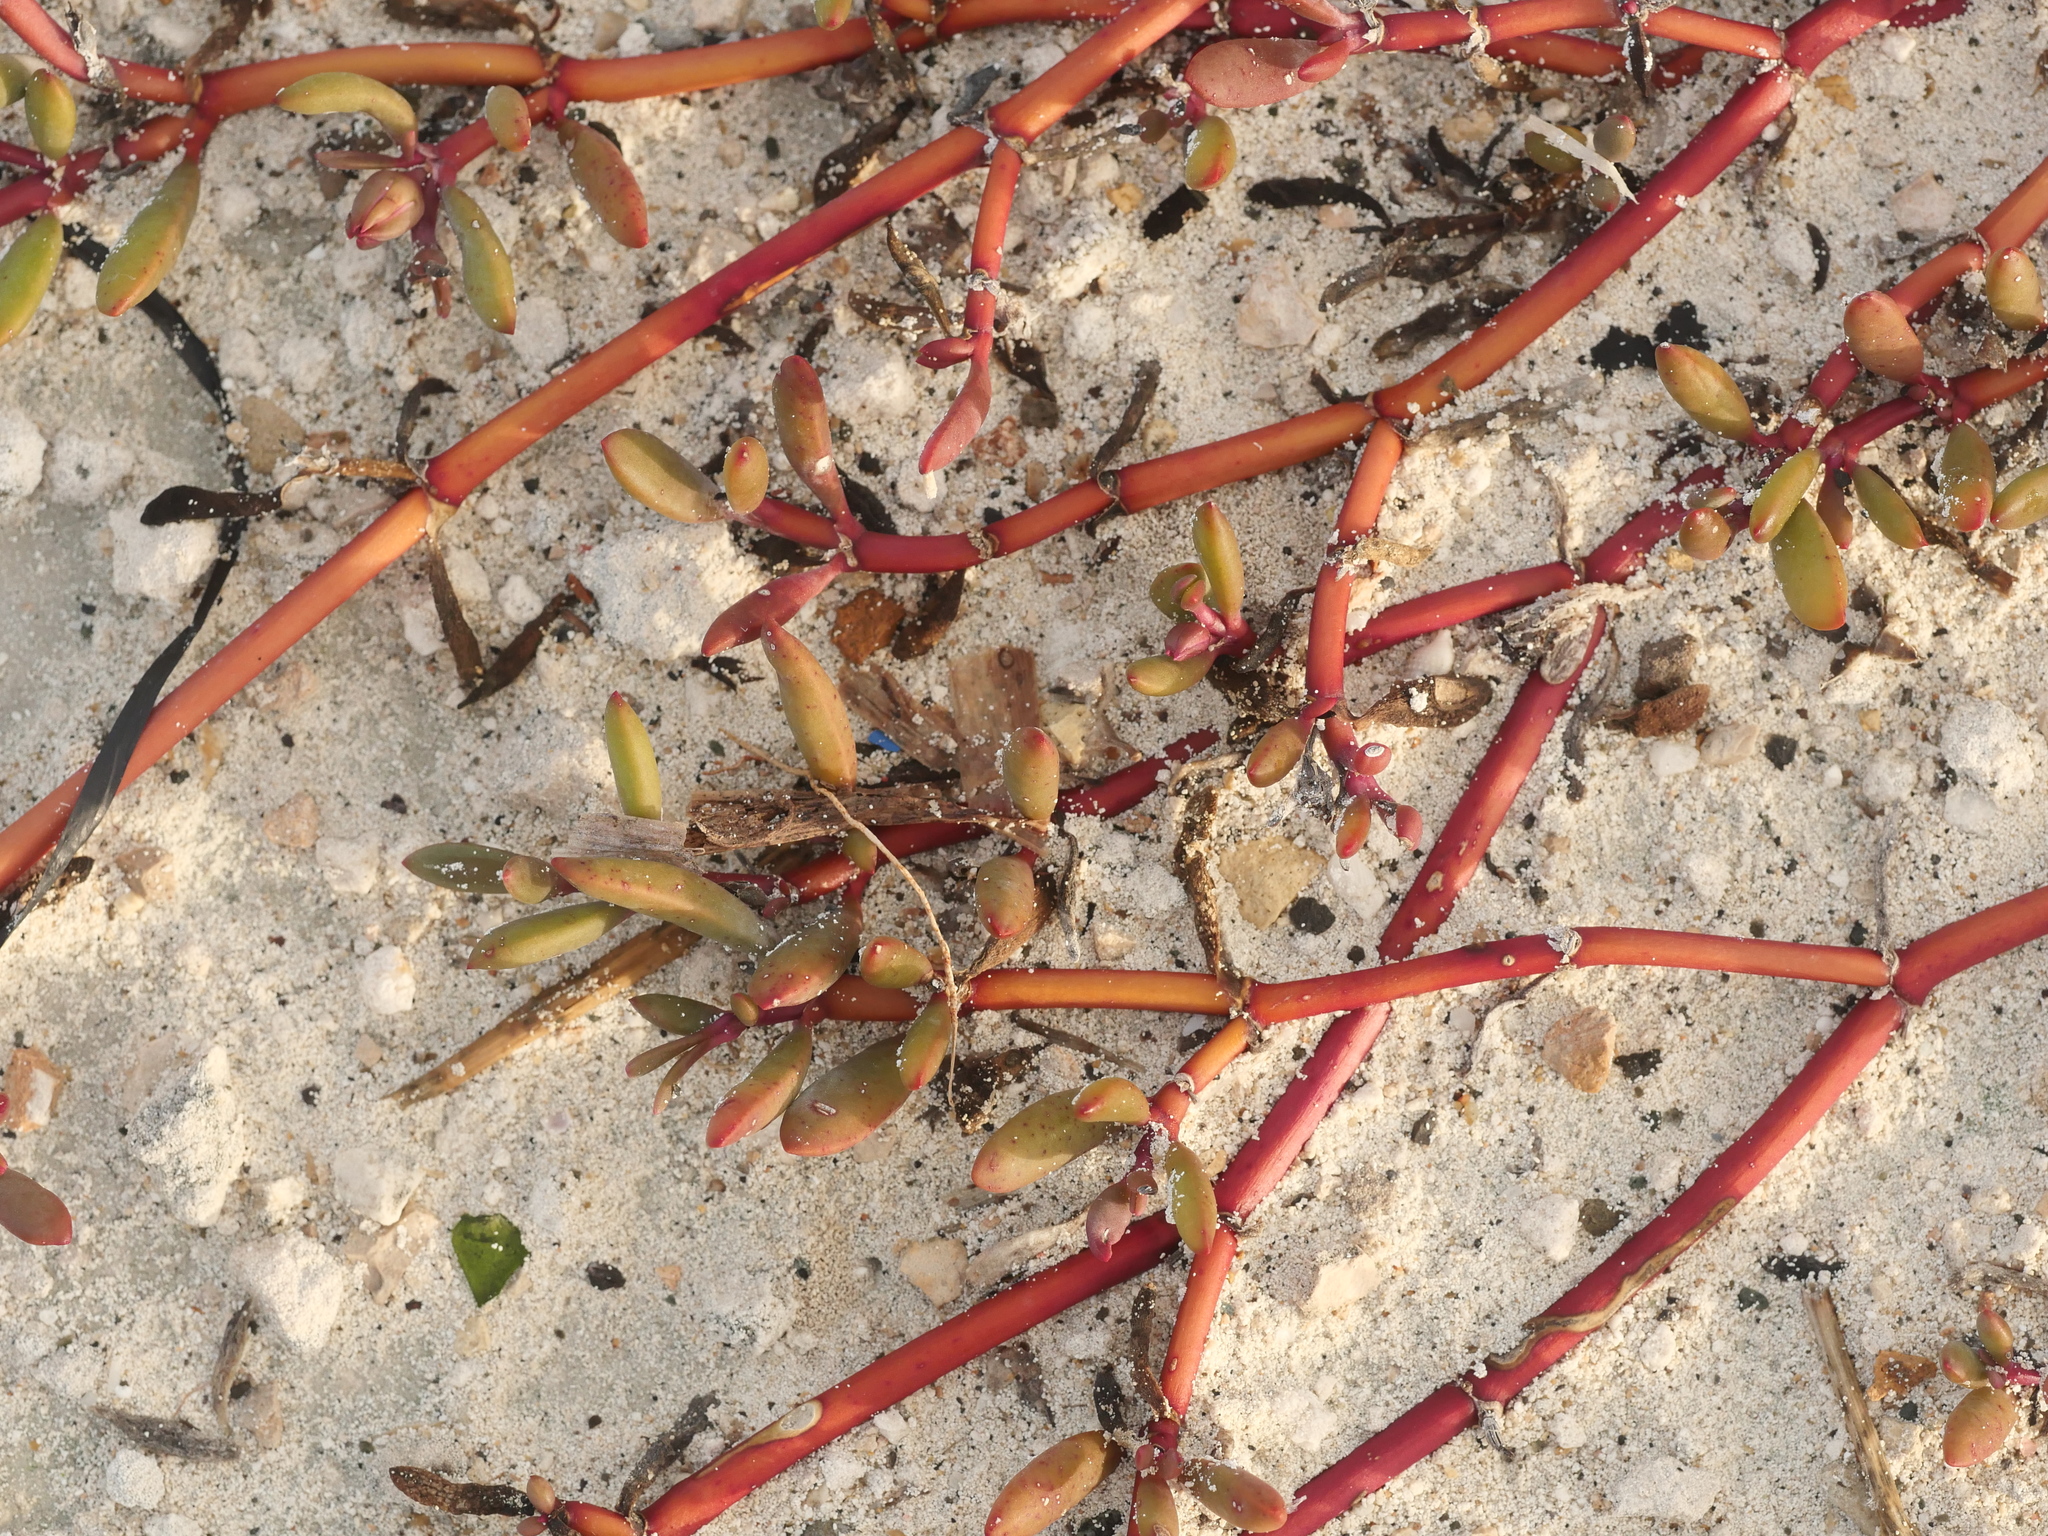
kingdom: Plantae
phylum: Tracheophyta
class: Magnoliopsida
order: Caryophyllales
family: Aizoaceae
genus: Sesuvium
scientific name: Sesuvium portulacastrum
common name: Sea-purslane
